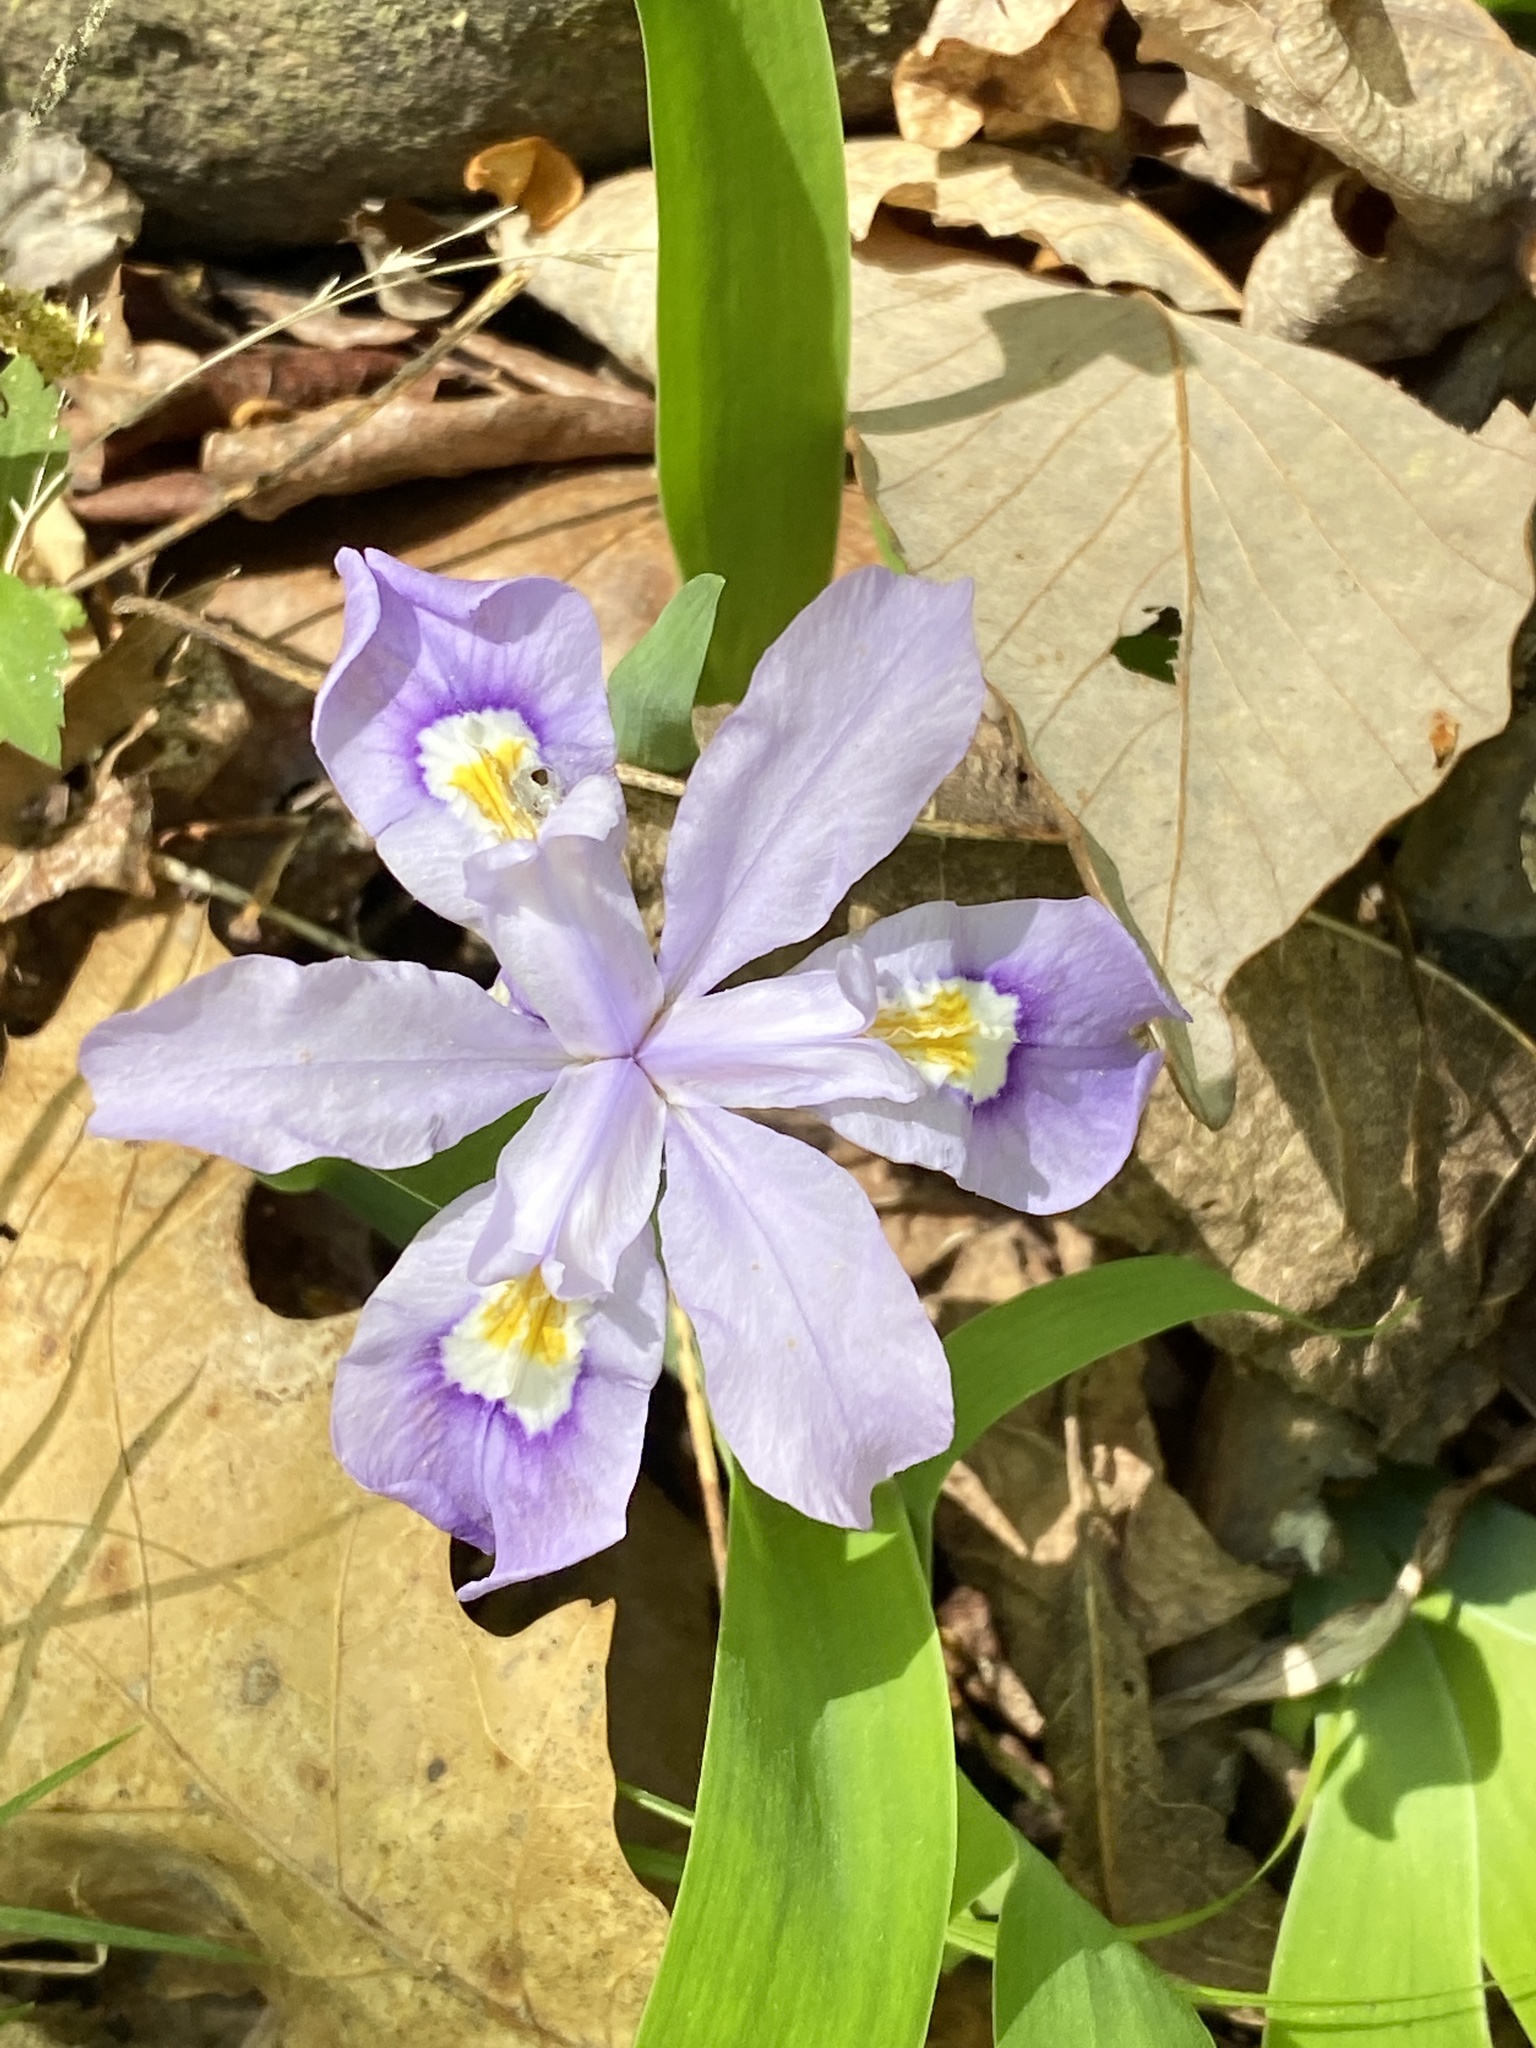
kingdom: Plantae
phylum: Tracheophyta
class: Liliopsida
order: Asparagales
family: Iridaceae
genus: Iris
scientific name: Iris cristata
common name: Crested iris
